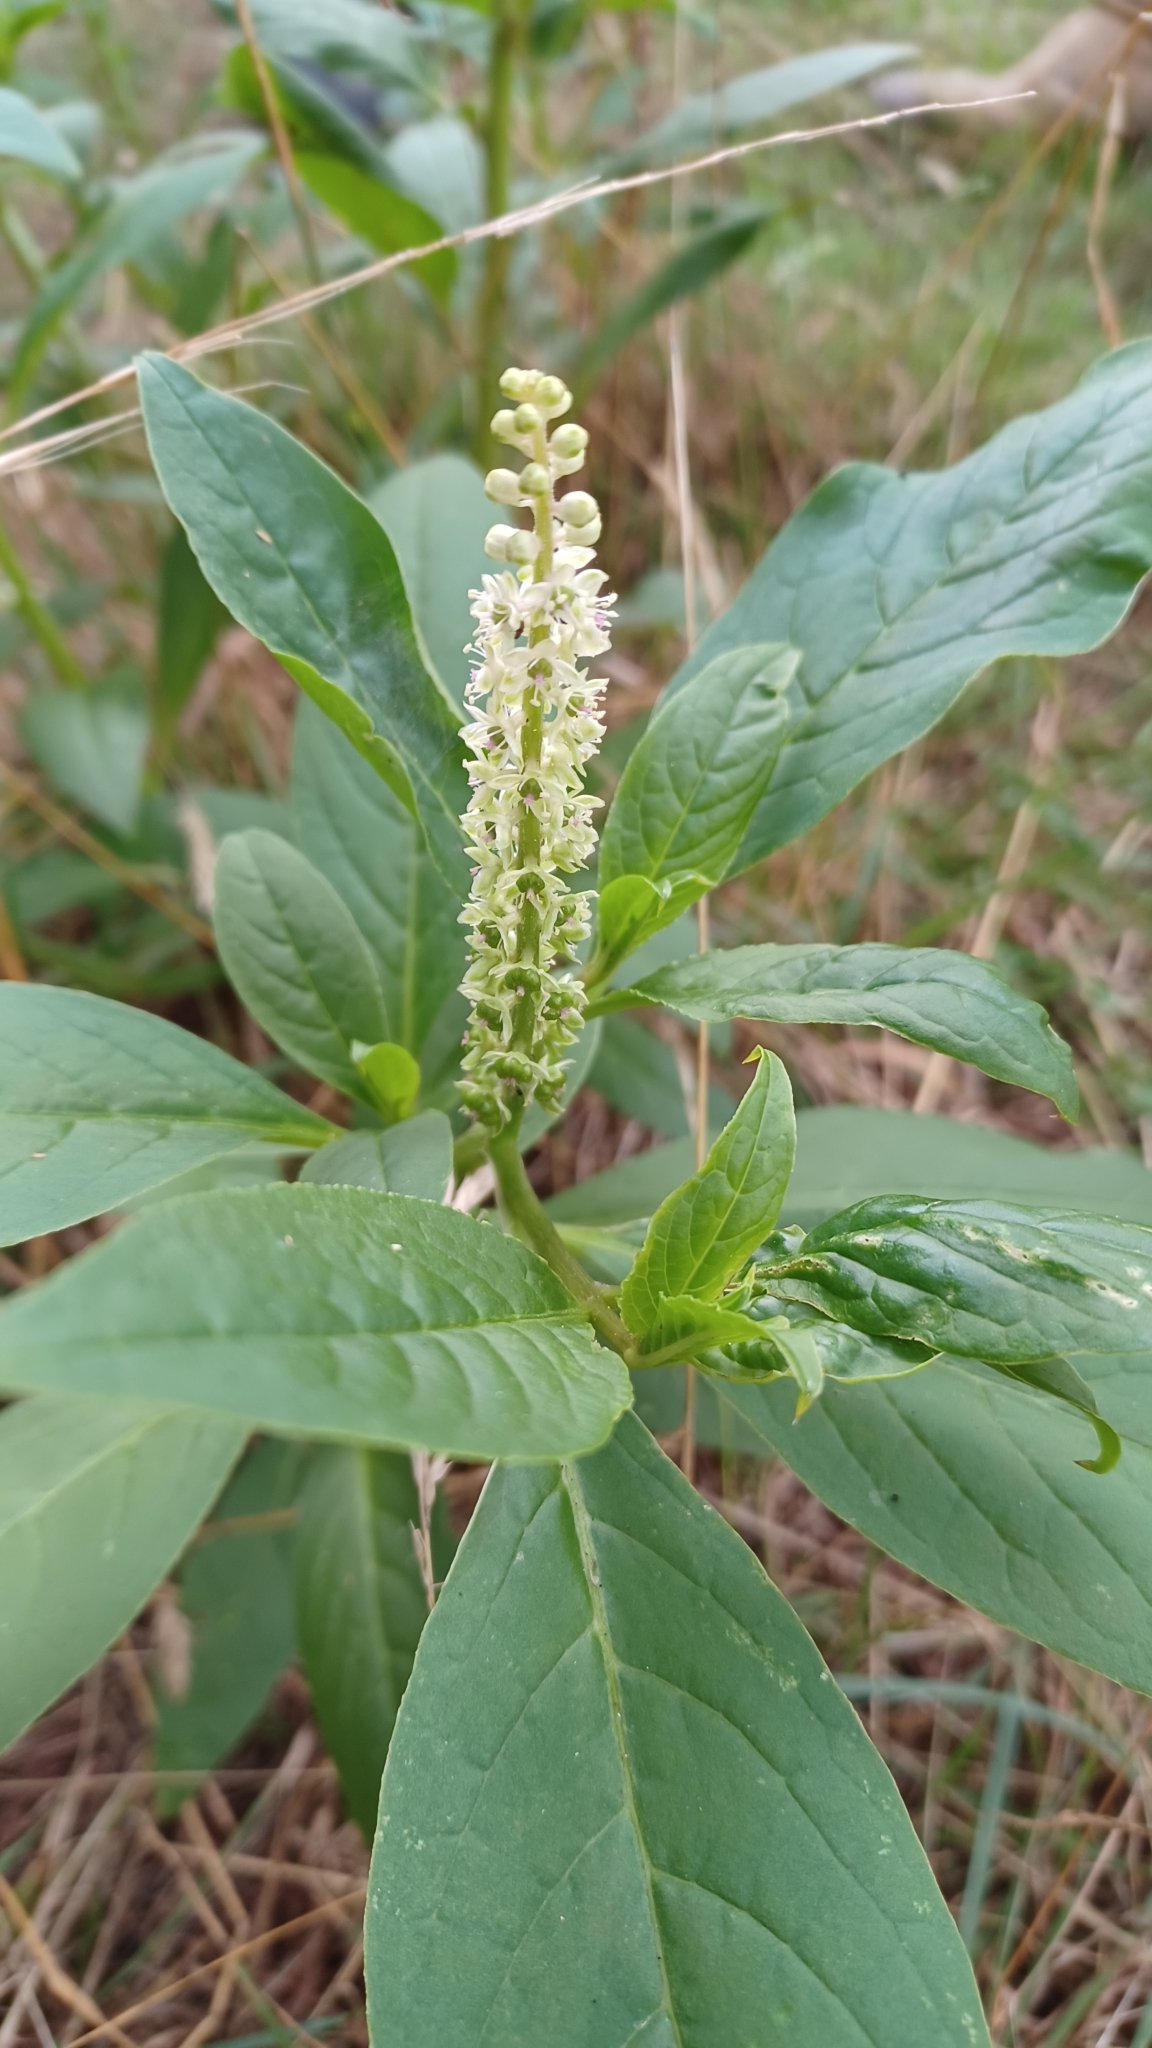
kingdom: Plantae
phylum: Tracheophyta
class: Magnoliopsida
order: Caryophyllales
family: Phytolaccaceae
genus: Phytolacca
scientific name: Phytolacca icosandra
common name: Button pokeweed
